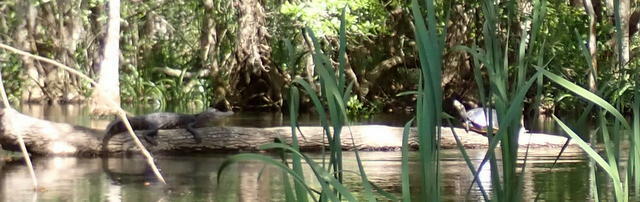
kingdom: Animalia
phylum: Chordata
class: Crocodylia
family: Alligatoridae
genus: Alligator
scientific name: Alligator mississippiensis
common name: American alligator
